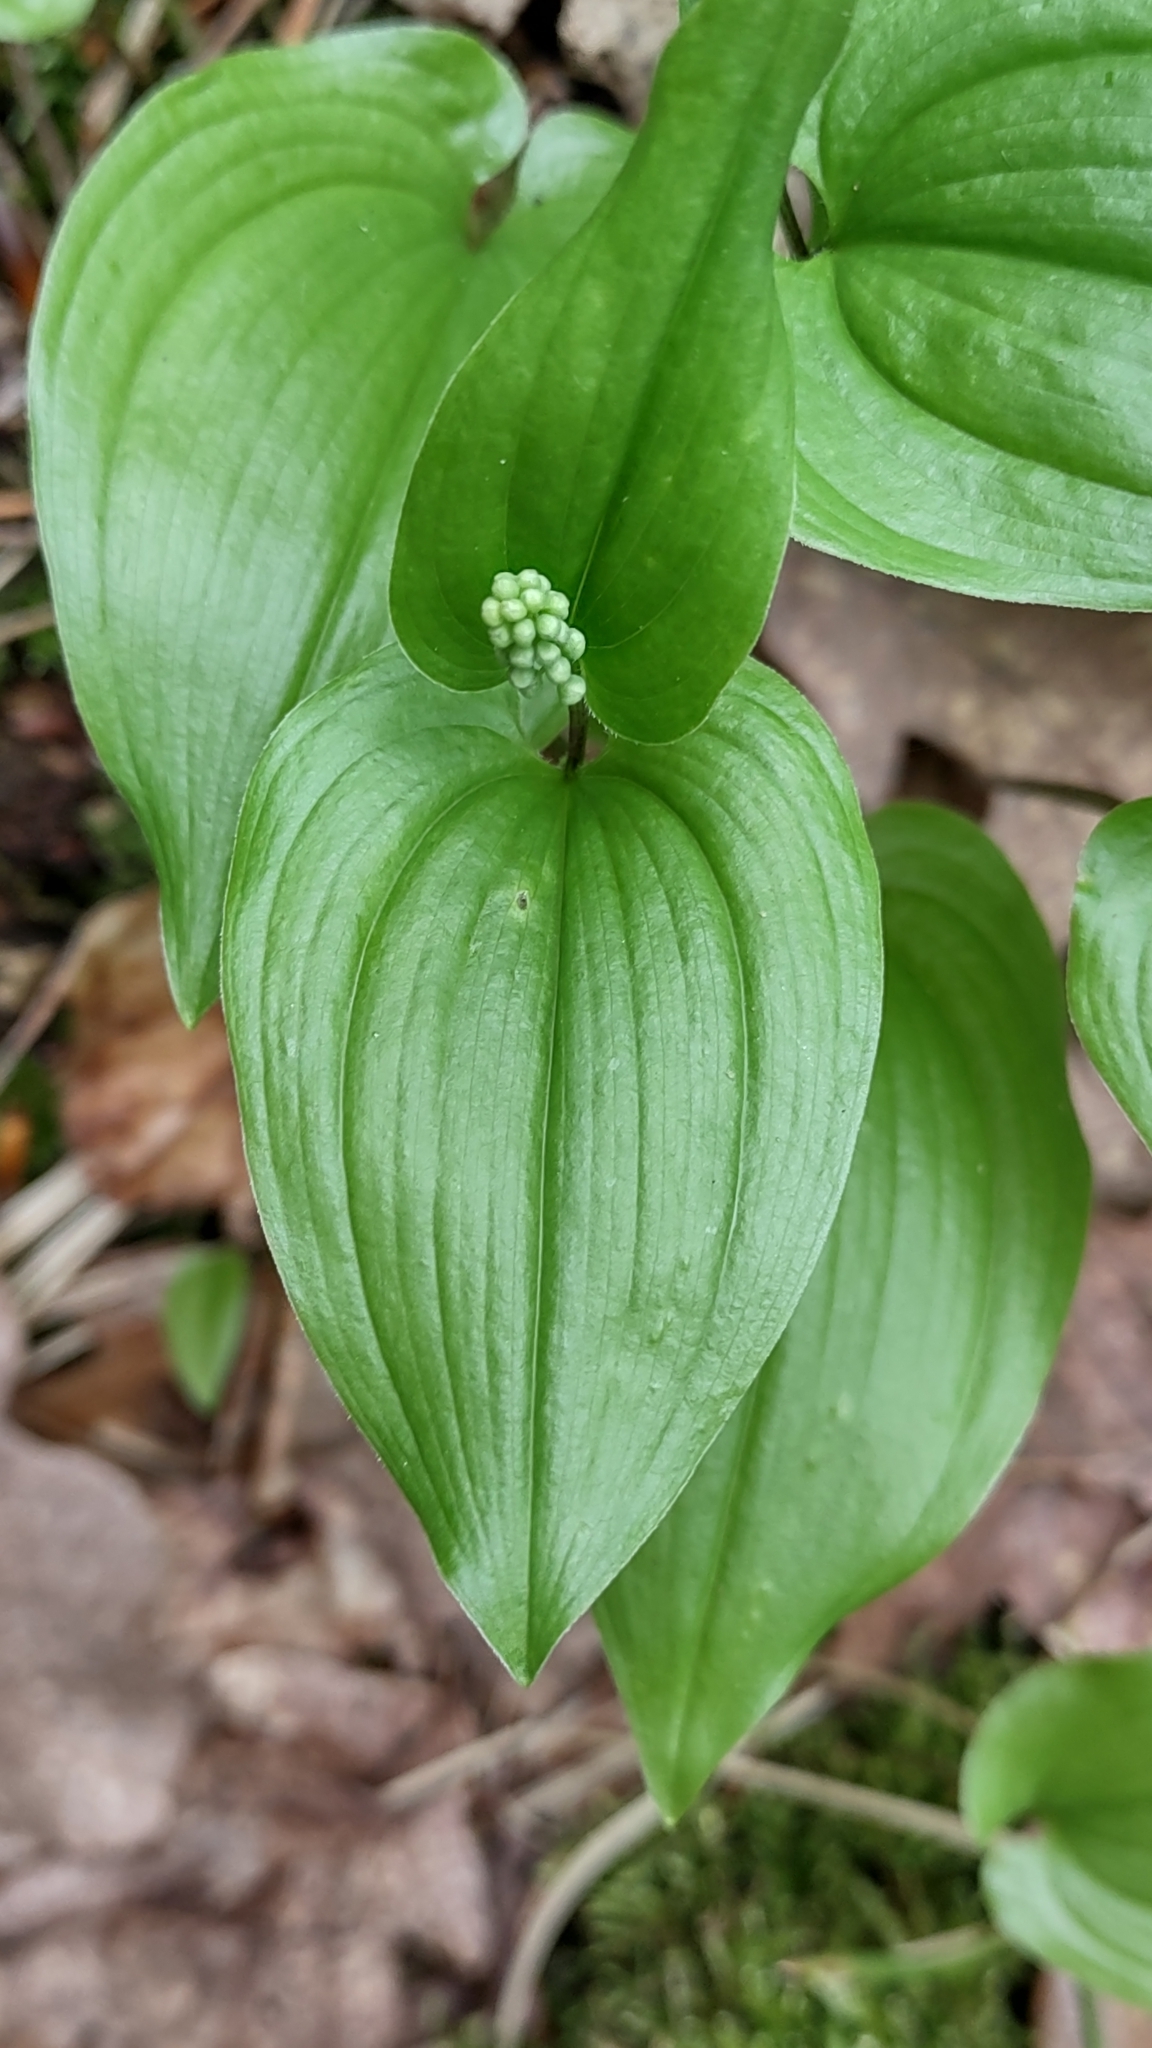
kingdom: Plantae
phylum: Tracheophyta
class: Liliopsida
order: Asparagales
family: Asparagaceae
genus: Maianthemum
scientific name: Maianthemum bifolium
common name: May lily
